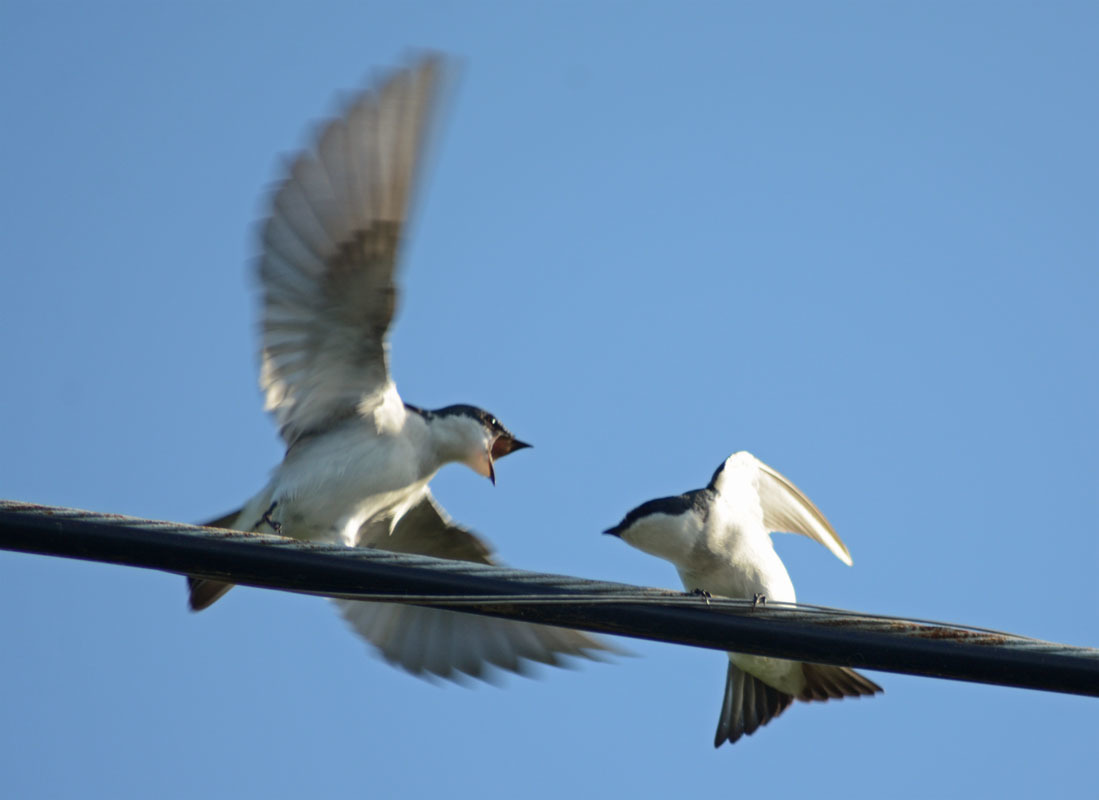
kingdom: Animalia
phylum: Chordata
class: Aves
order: Passeriformes
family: Hirundinidae
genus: Tachycineta
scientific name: Tachycineta albilinea
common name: Mangrove swallow
